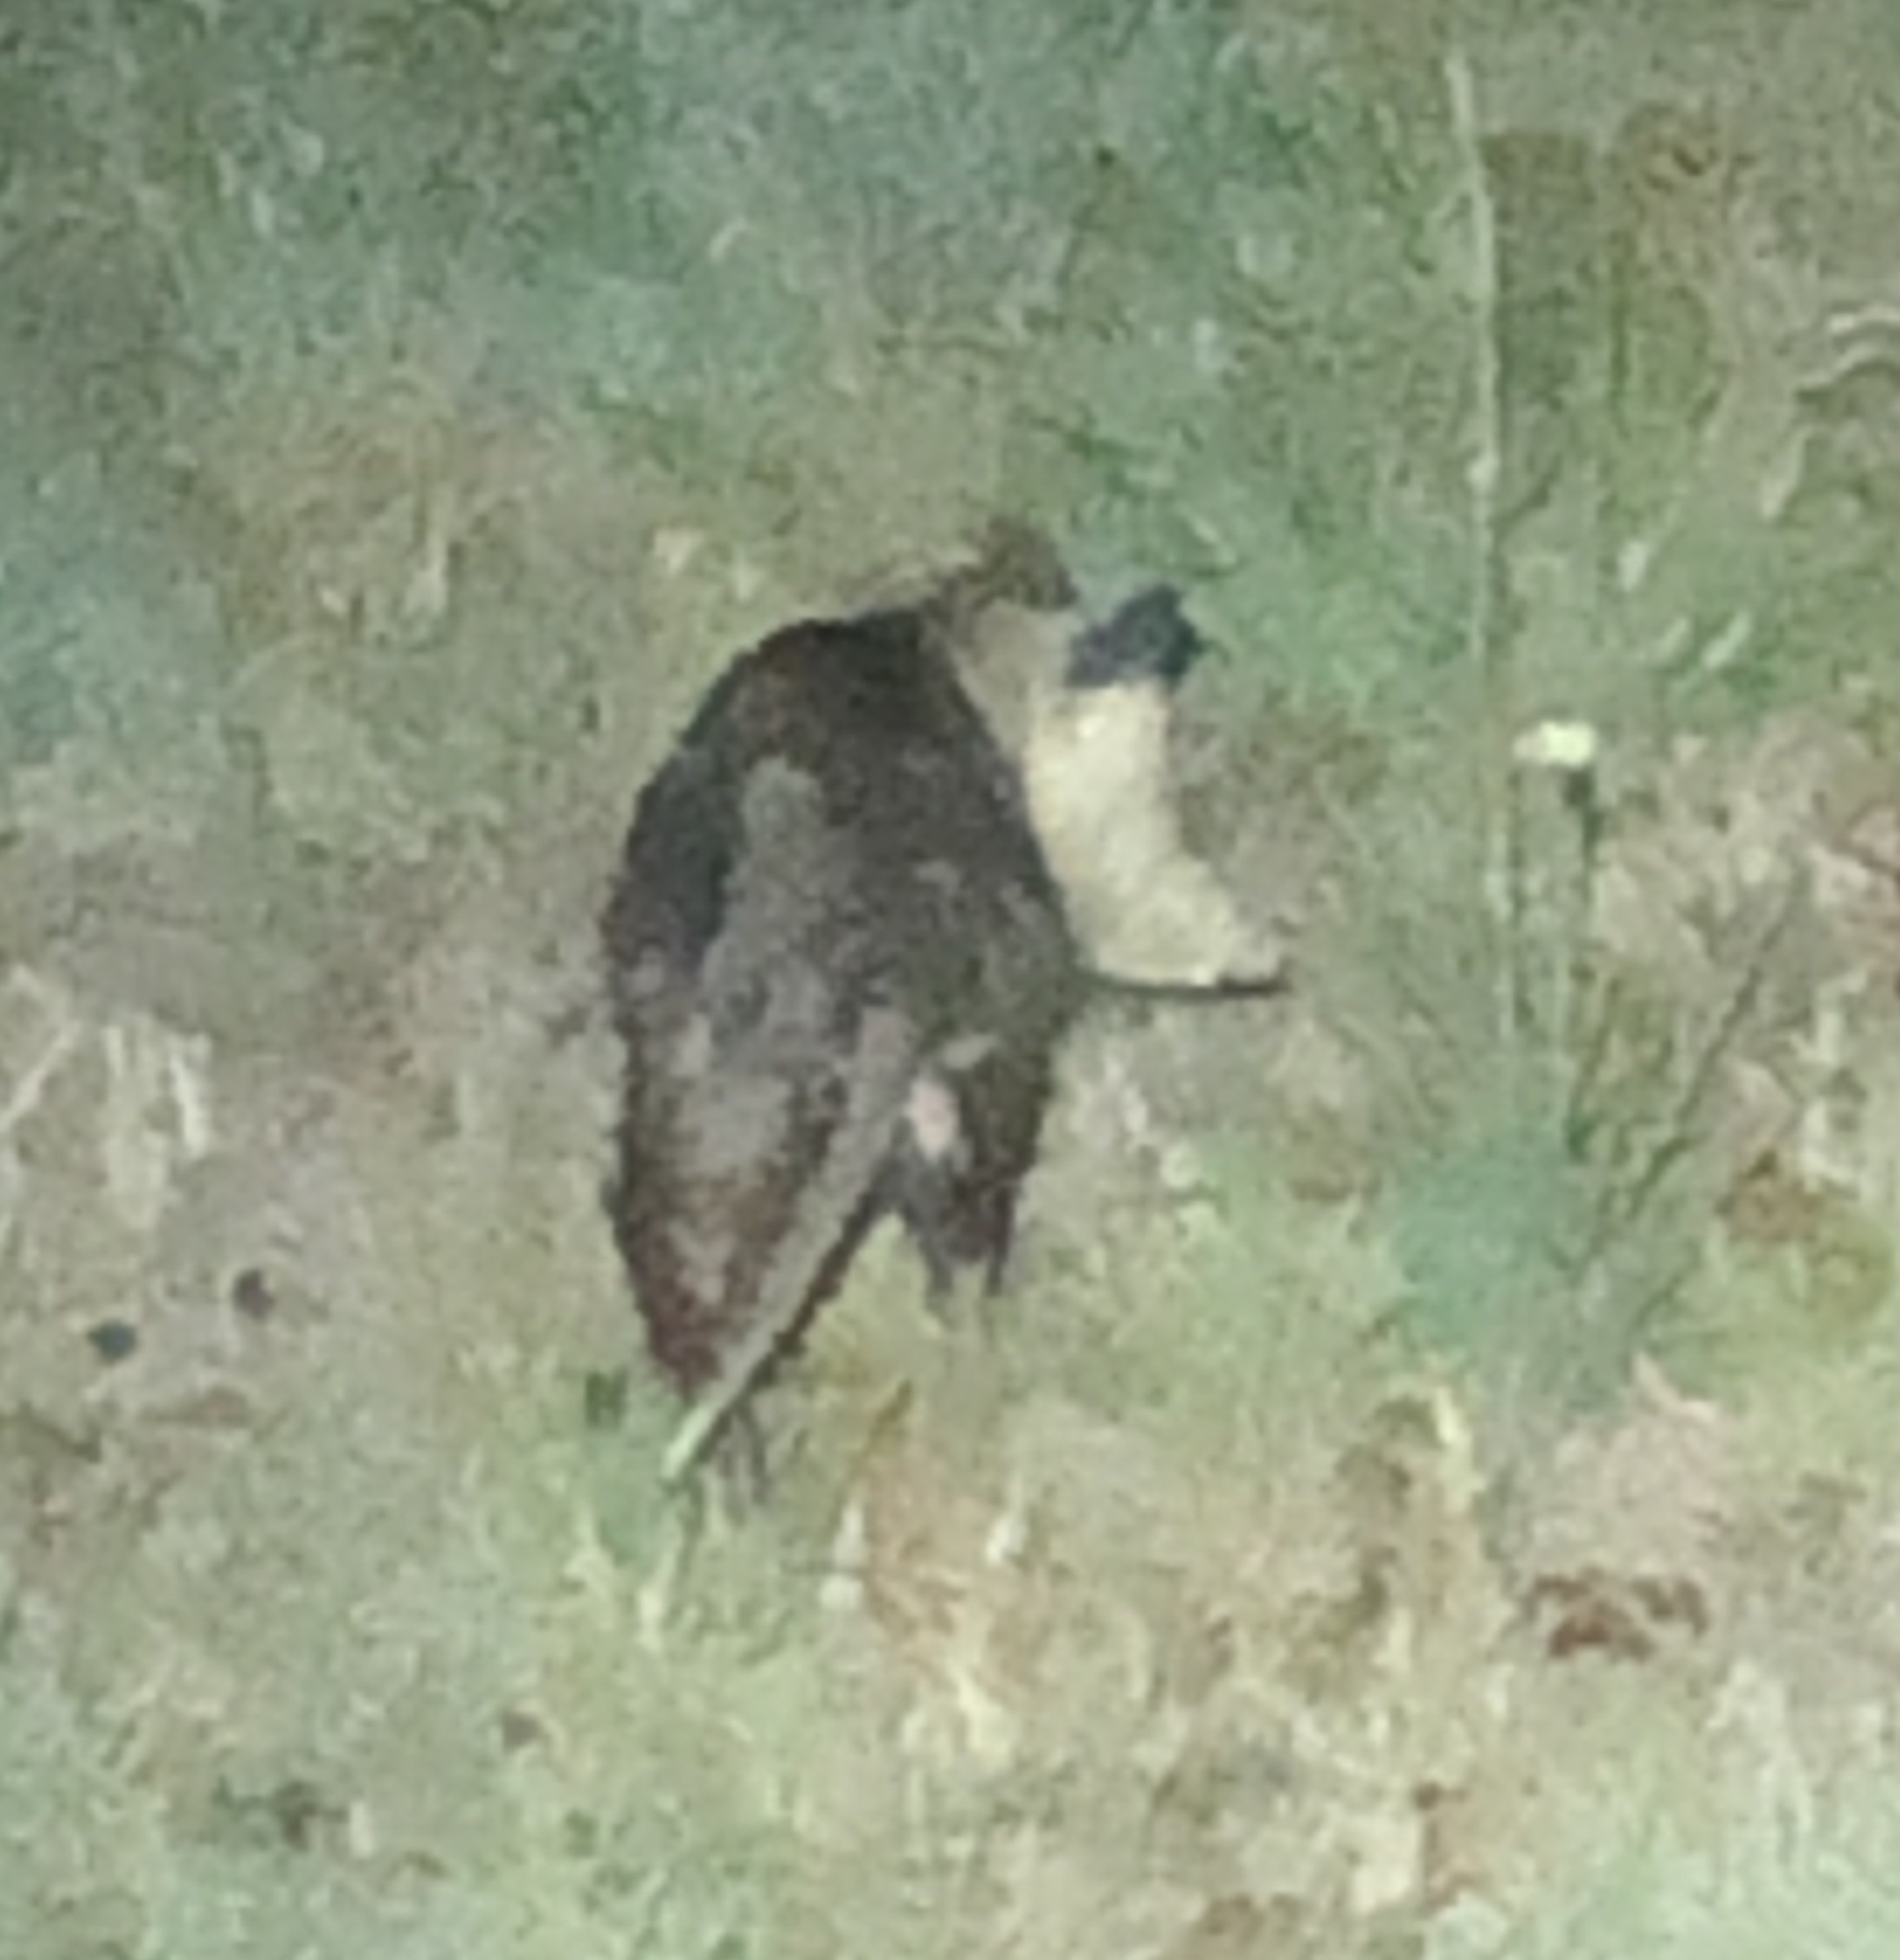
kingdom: Animalia
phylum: Chordata
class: Mammalia
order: Didelphimorphia
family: Didelphidae
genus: Didelphis
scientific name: Didelphis virginiana
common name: Virginia opossum
